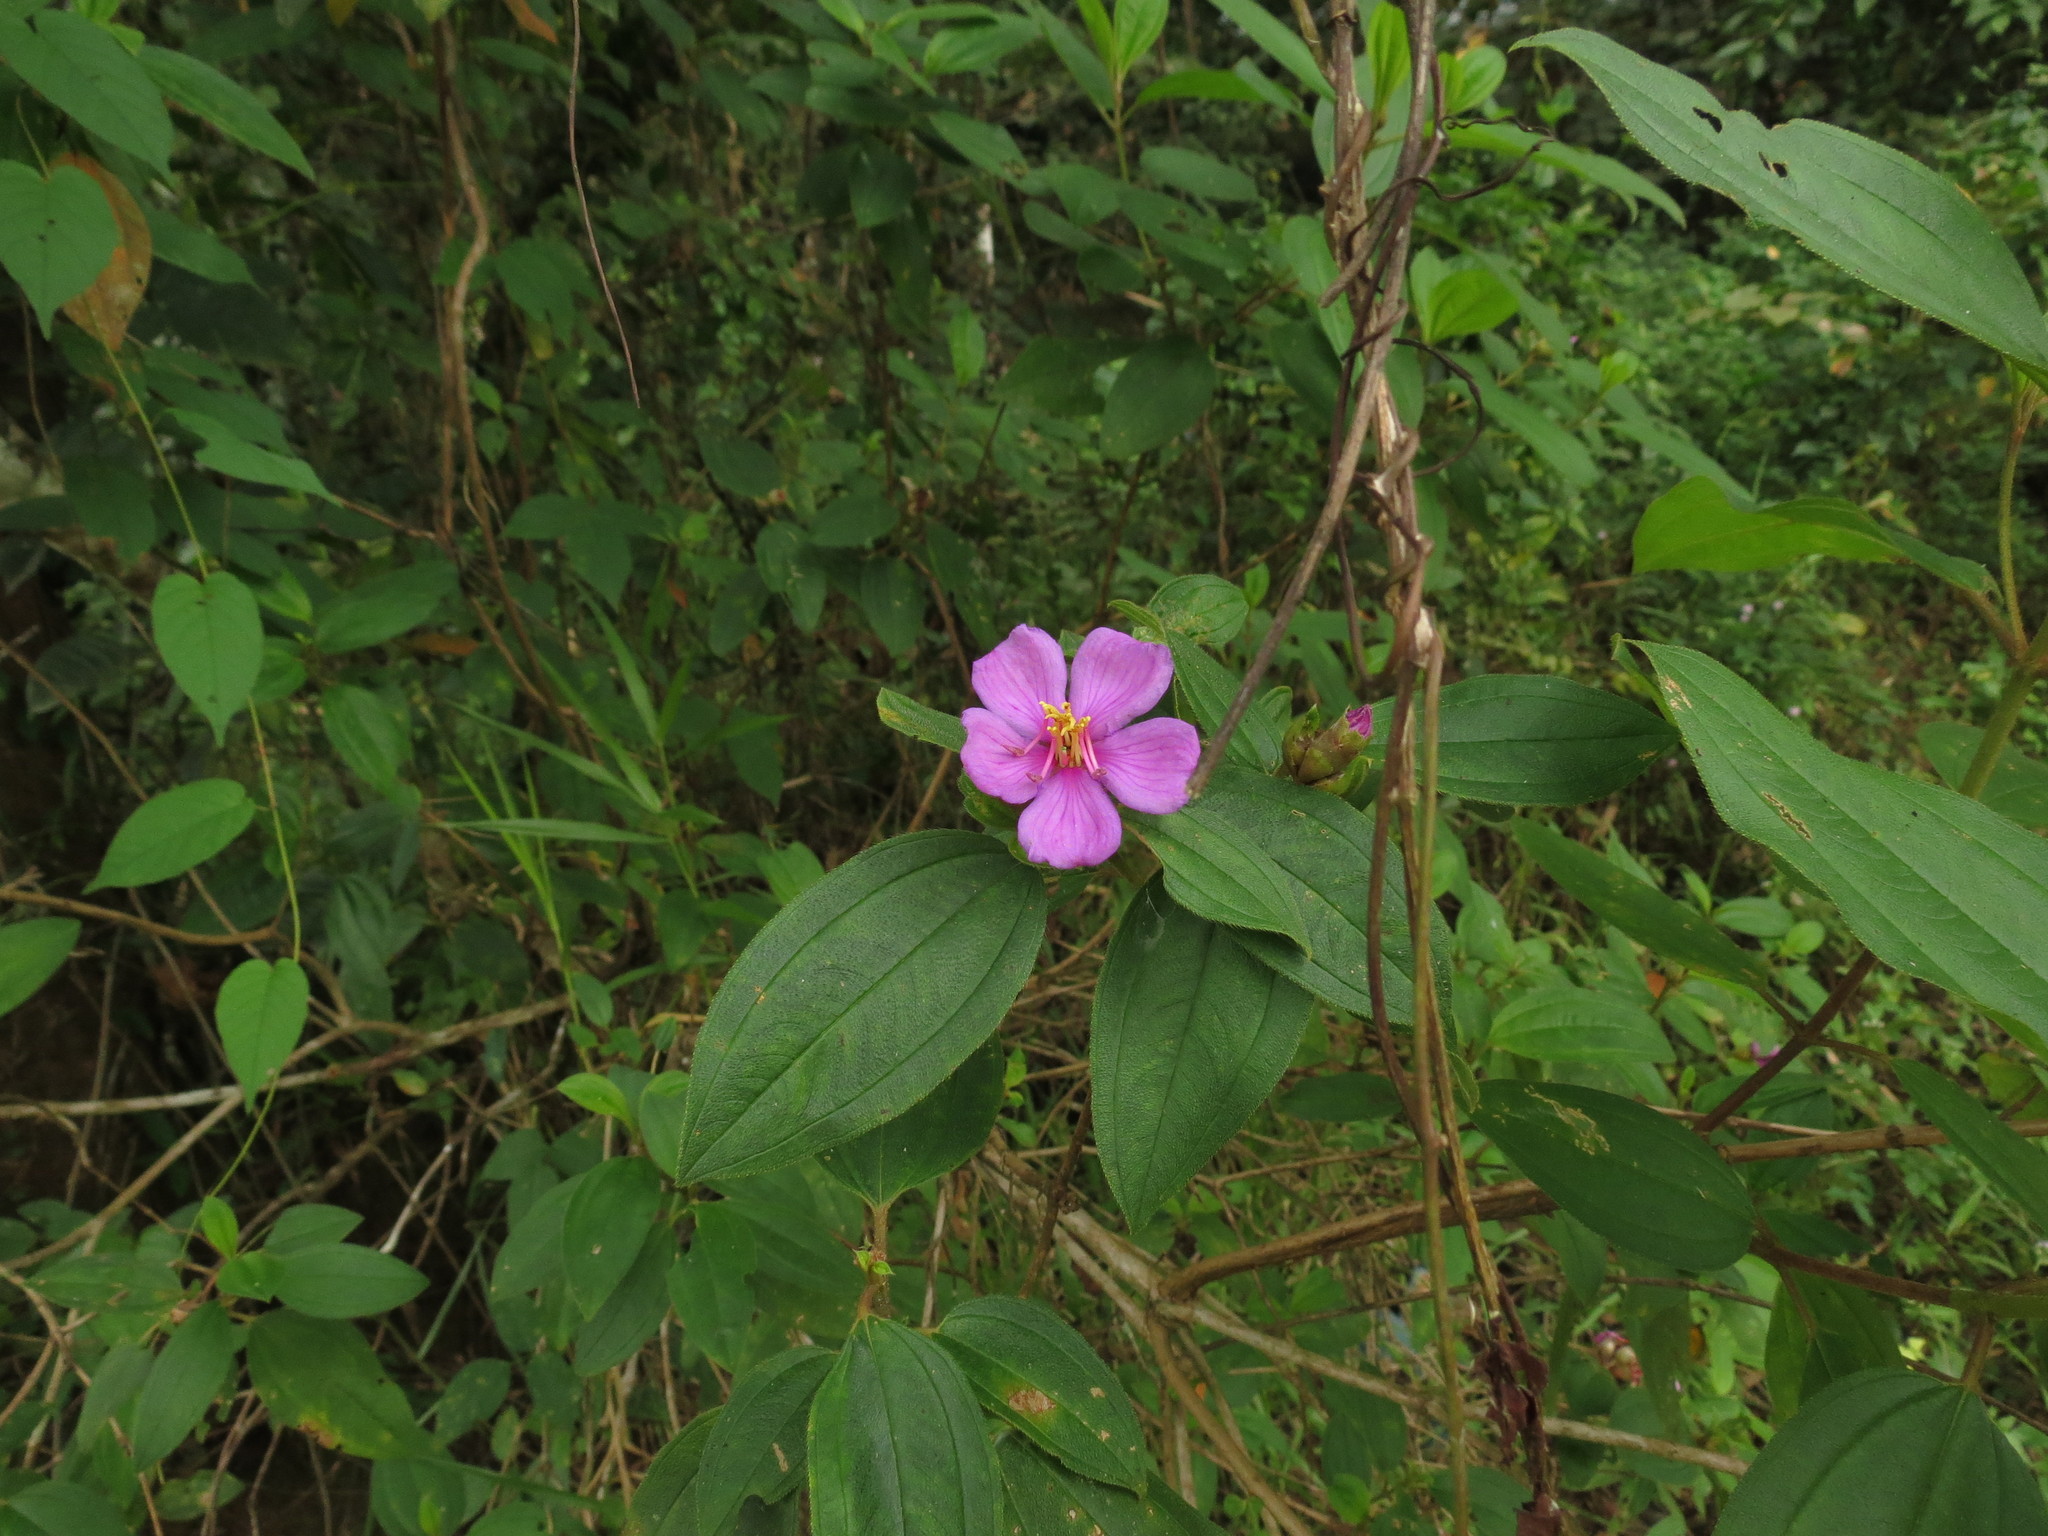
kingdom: Plantae
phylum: Tracheophyta
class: Magnoliopsida
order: Myrtales
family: Melastomataceae
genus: Melastoma
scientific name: Melastoma malabathricum
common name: Indian-rhododendron
